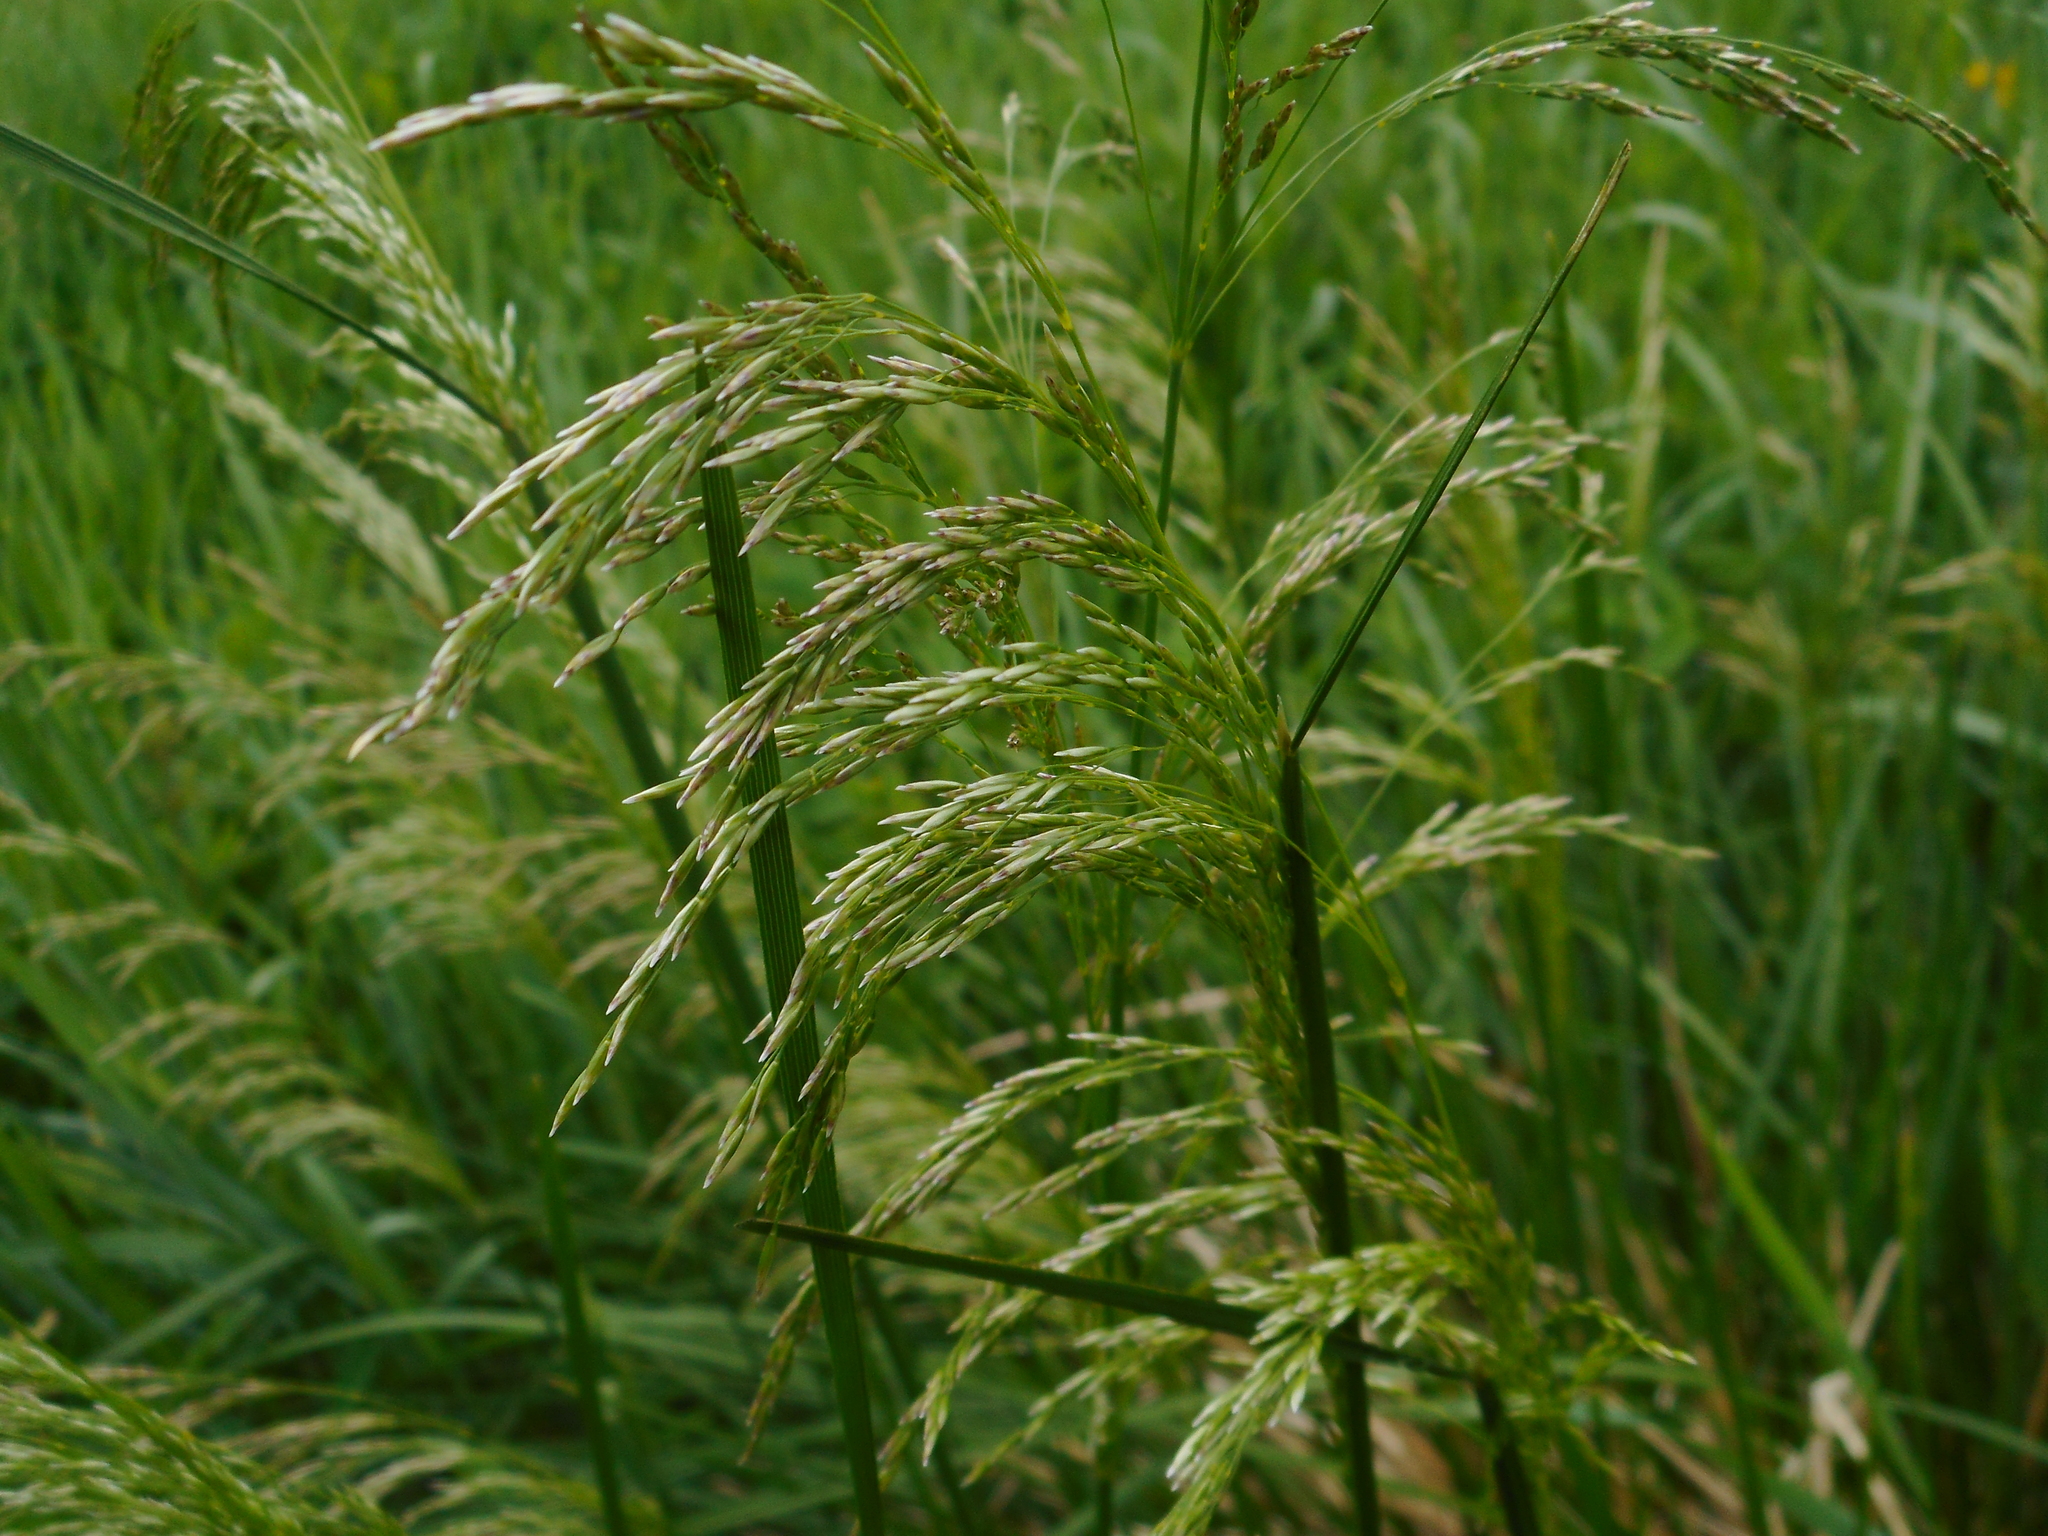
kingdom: Plantae
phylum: Tracheophyta
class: Liliopsida
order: Poales
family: Poaceae
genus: Deschampsia
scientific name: Deschampsia cespitosa
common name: Tufted hair-grass
